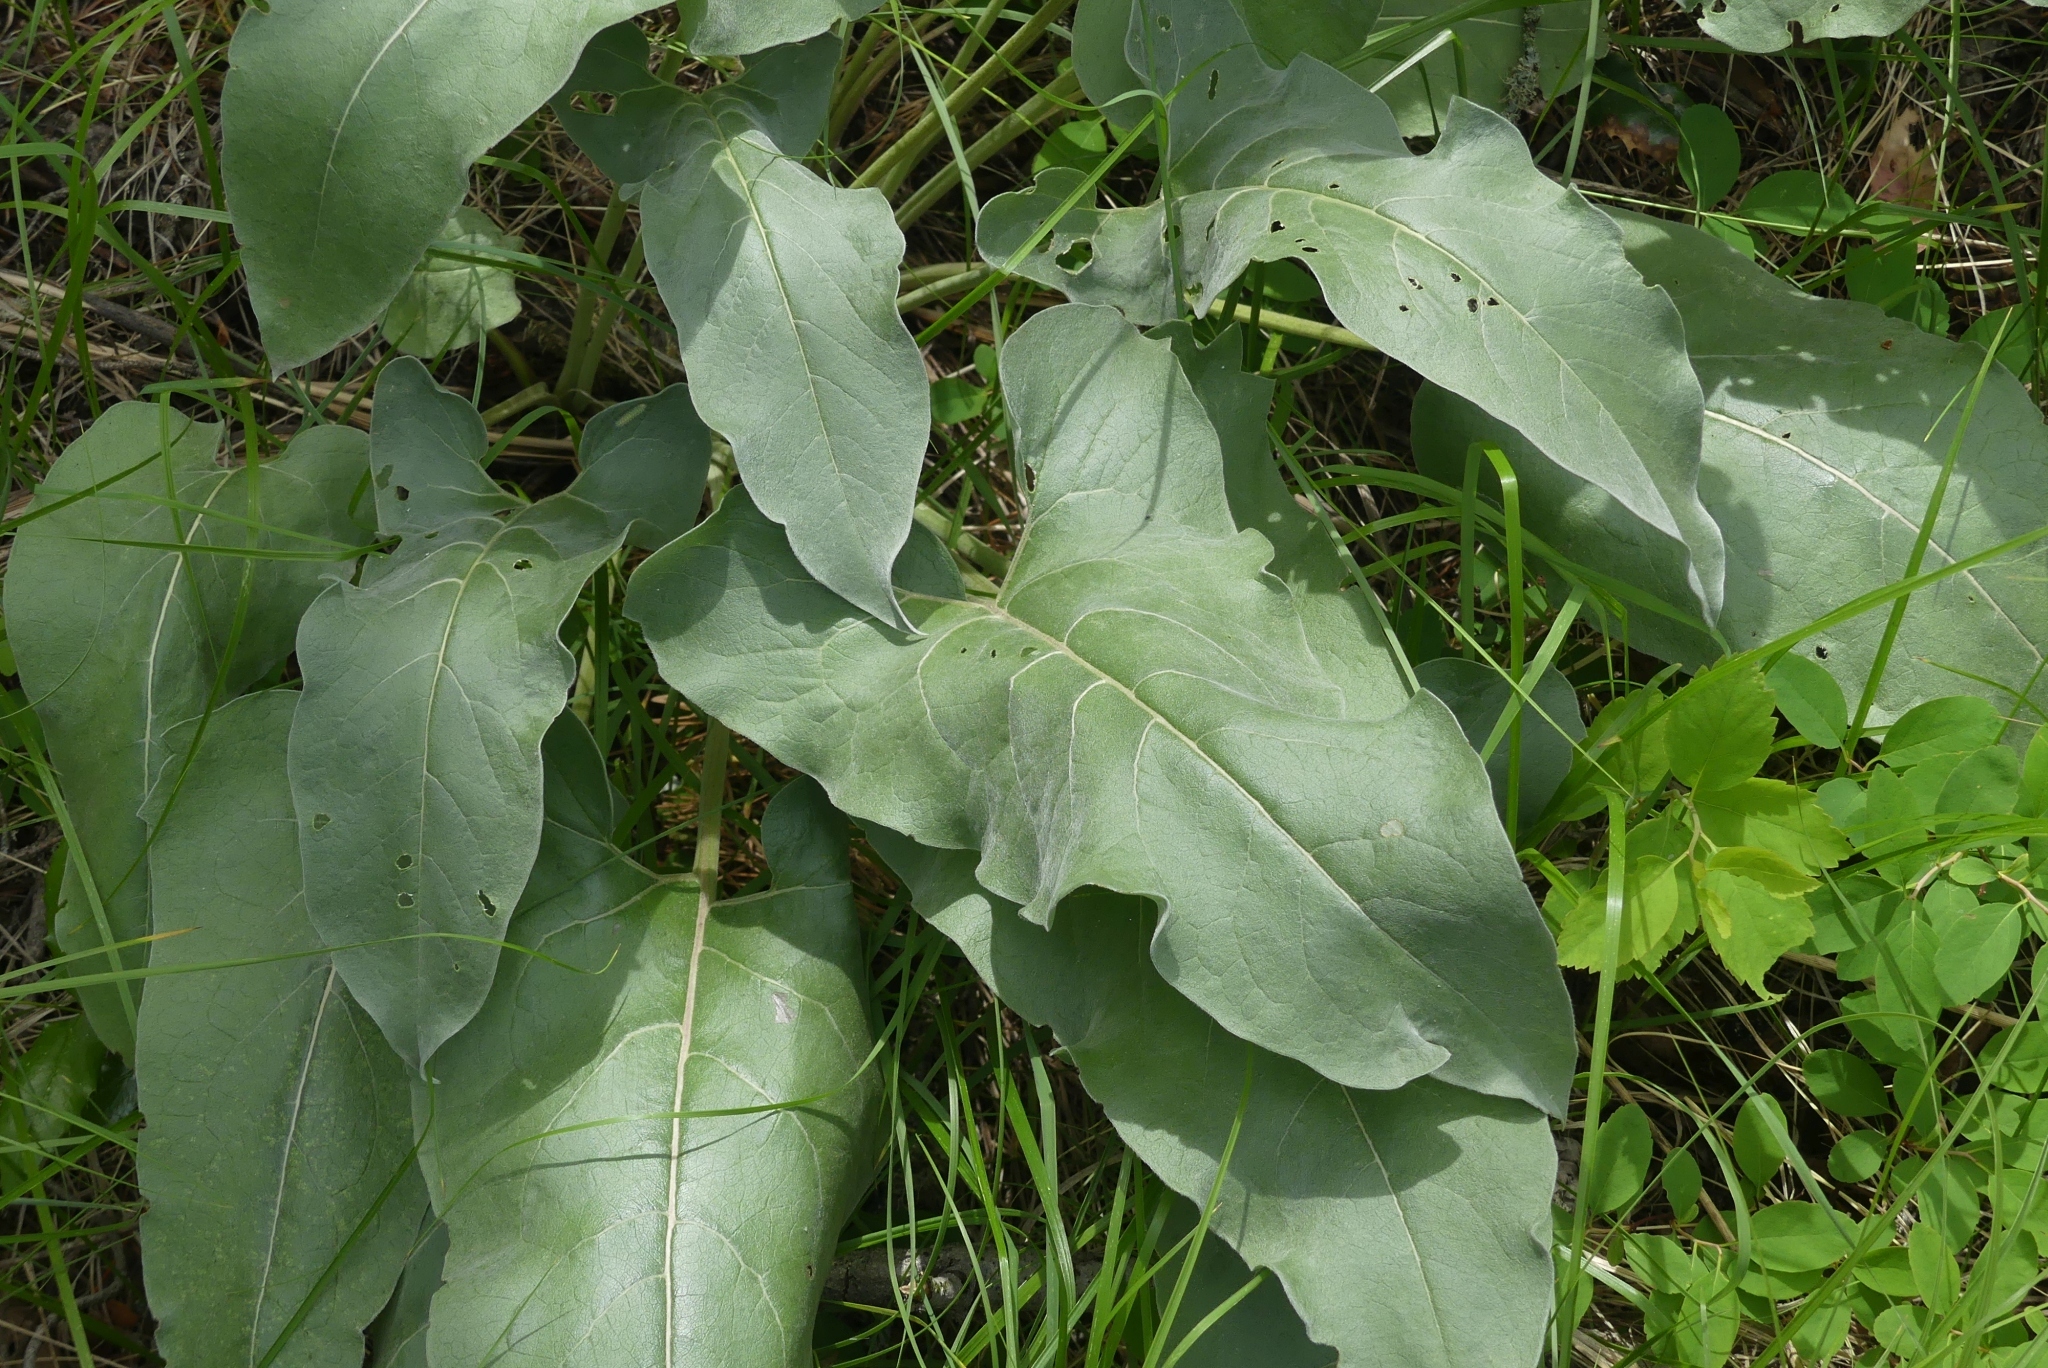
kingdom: Plantae
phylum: Tracheophyta
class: Magnoliopsida
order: Asterales
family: Asteraceae
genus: Wyethia
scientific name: Wyethia sagittata
